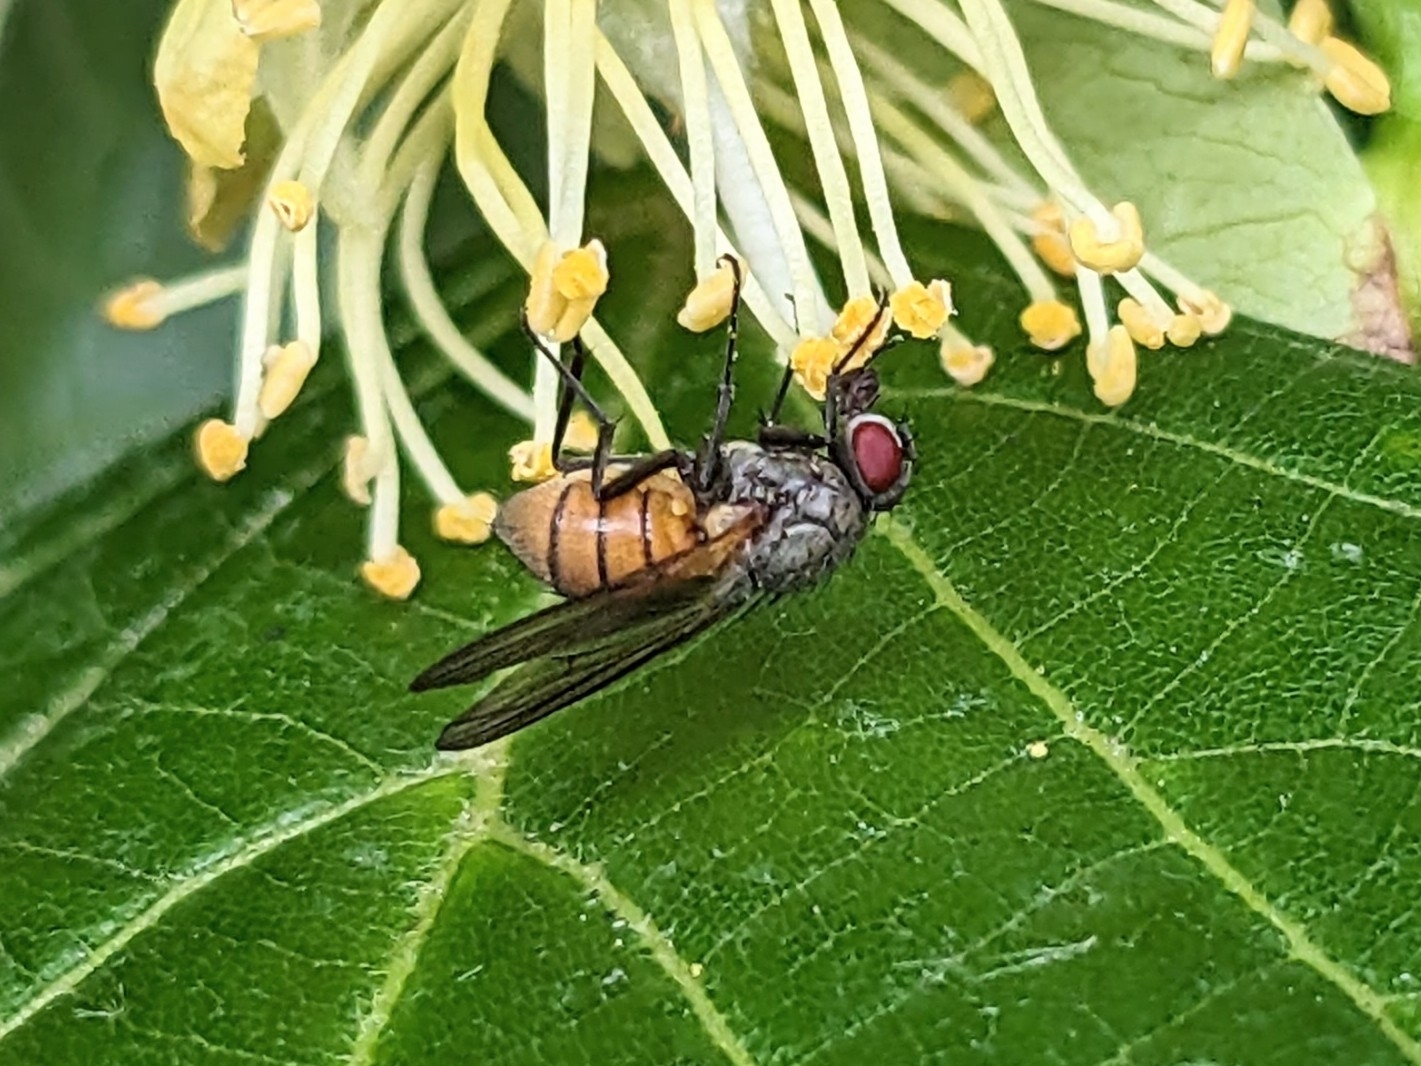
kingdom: Animalia
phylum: Arthropoda
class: Insecta
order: Diptera
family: Muscidae
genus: Thricops
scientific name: Thricops semicinereus
